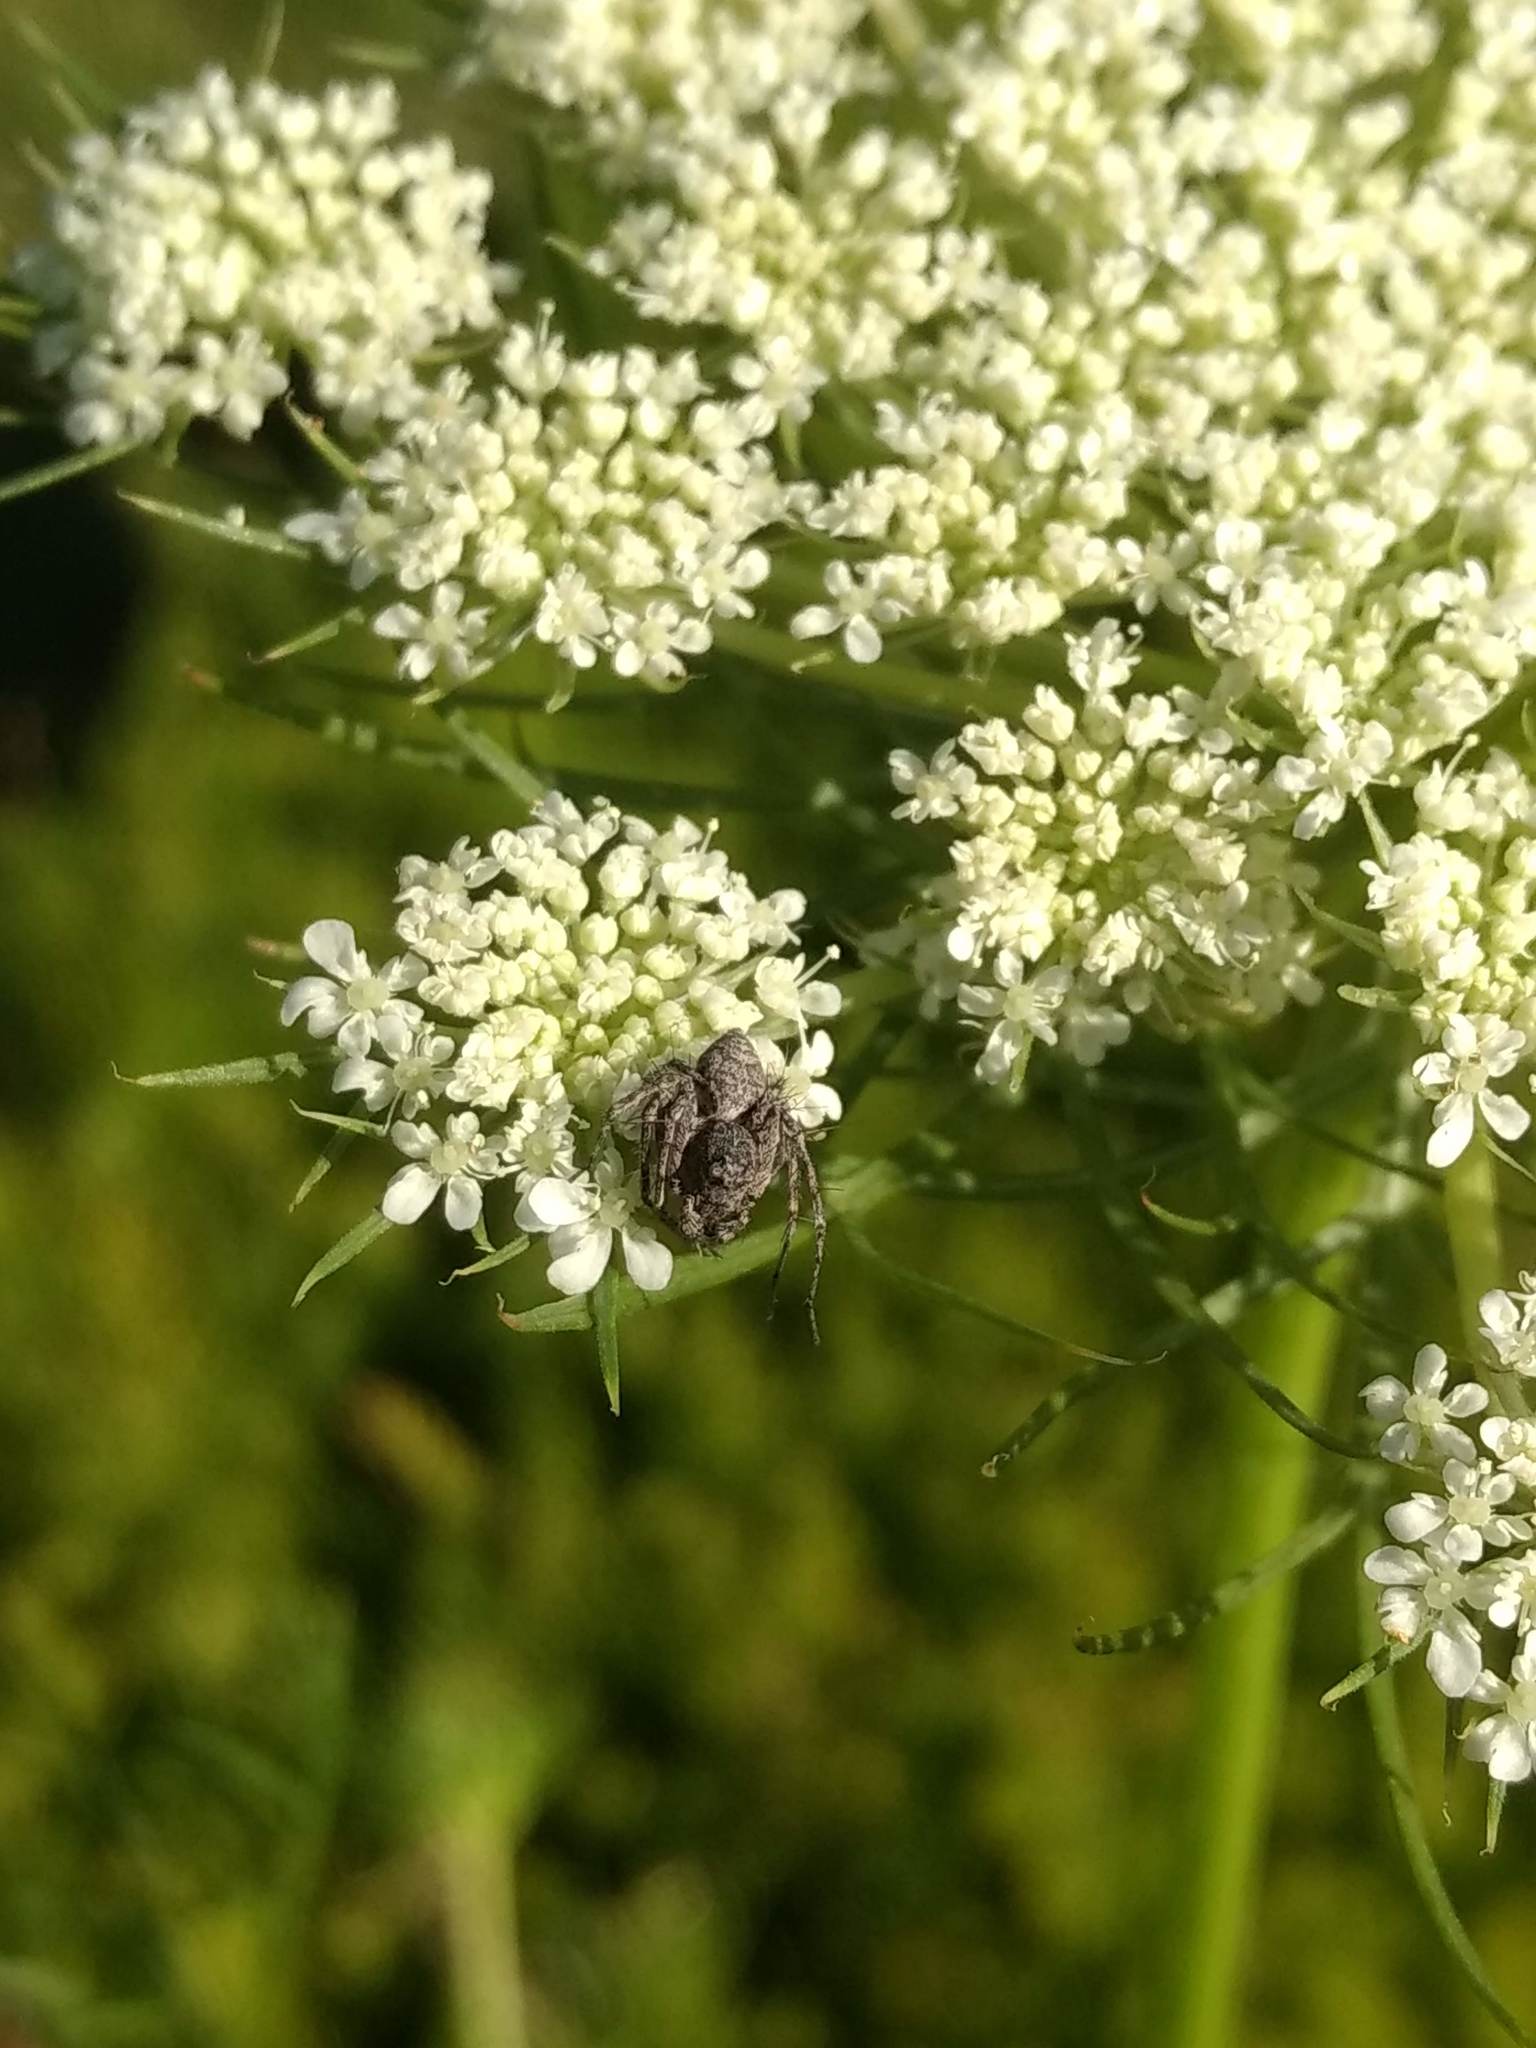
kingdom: Animalia
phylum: Arthropoda
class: Arachnida
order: Araneae
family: Oxyopidae
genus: Hamataliwa
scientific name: Hamataliwa grisea
